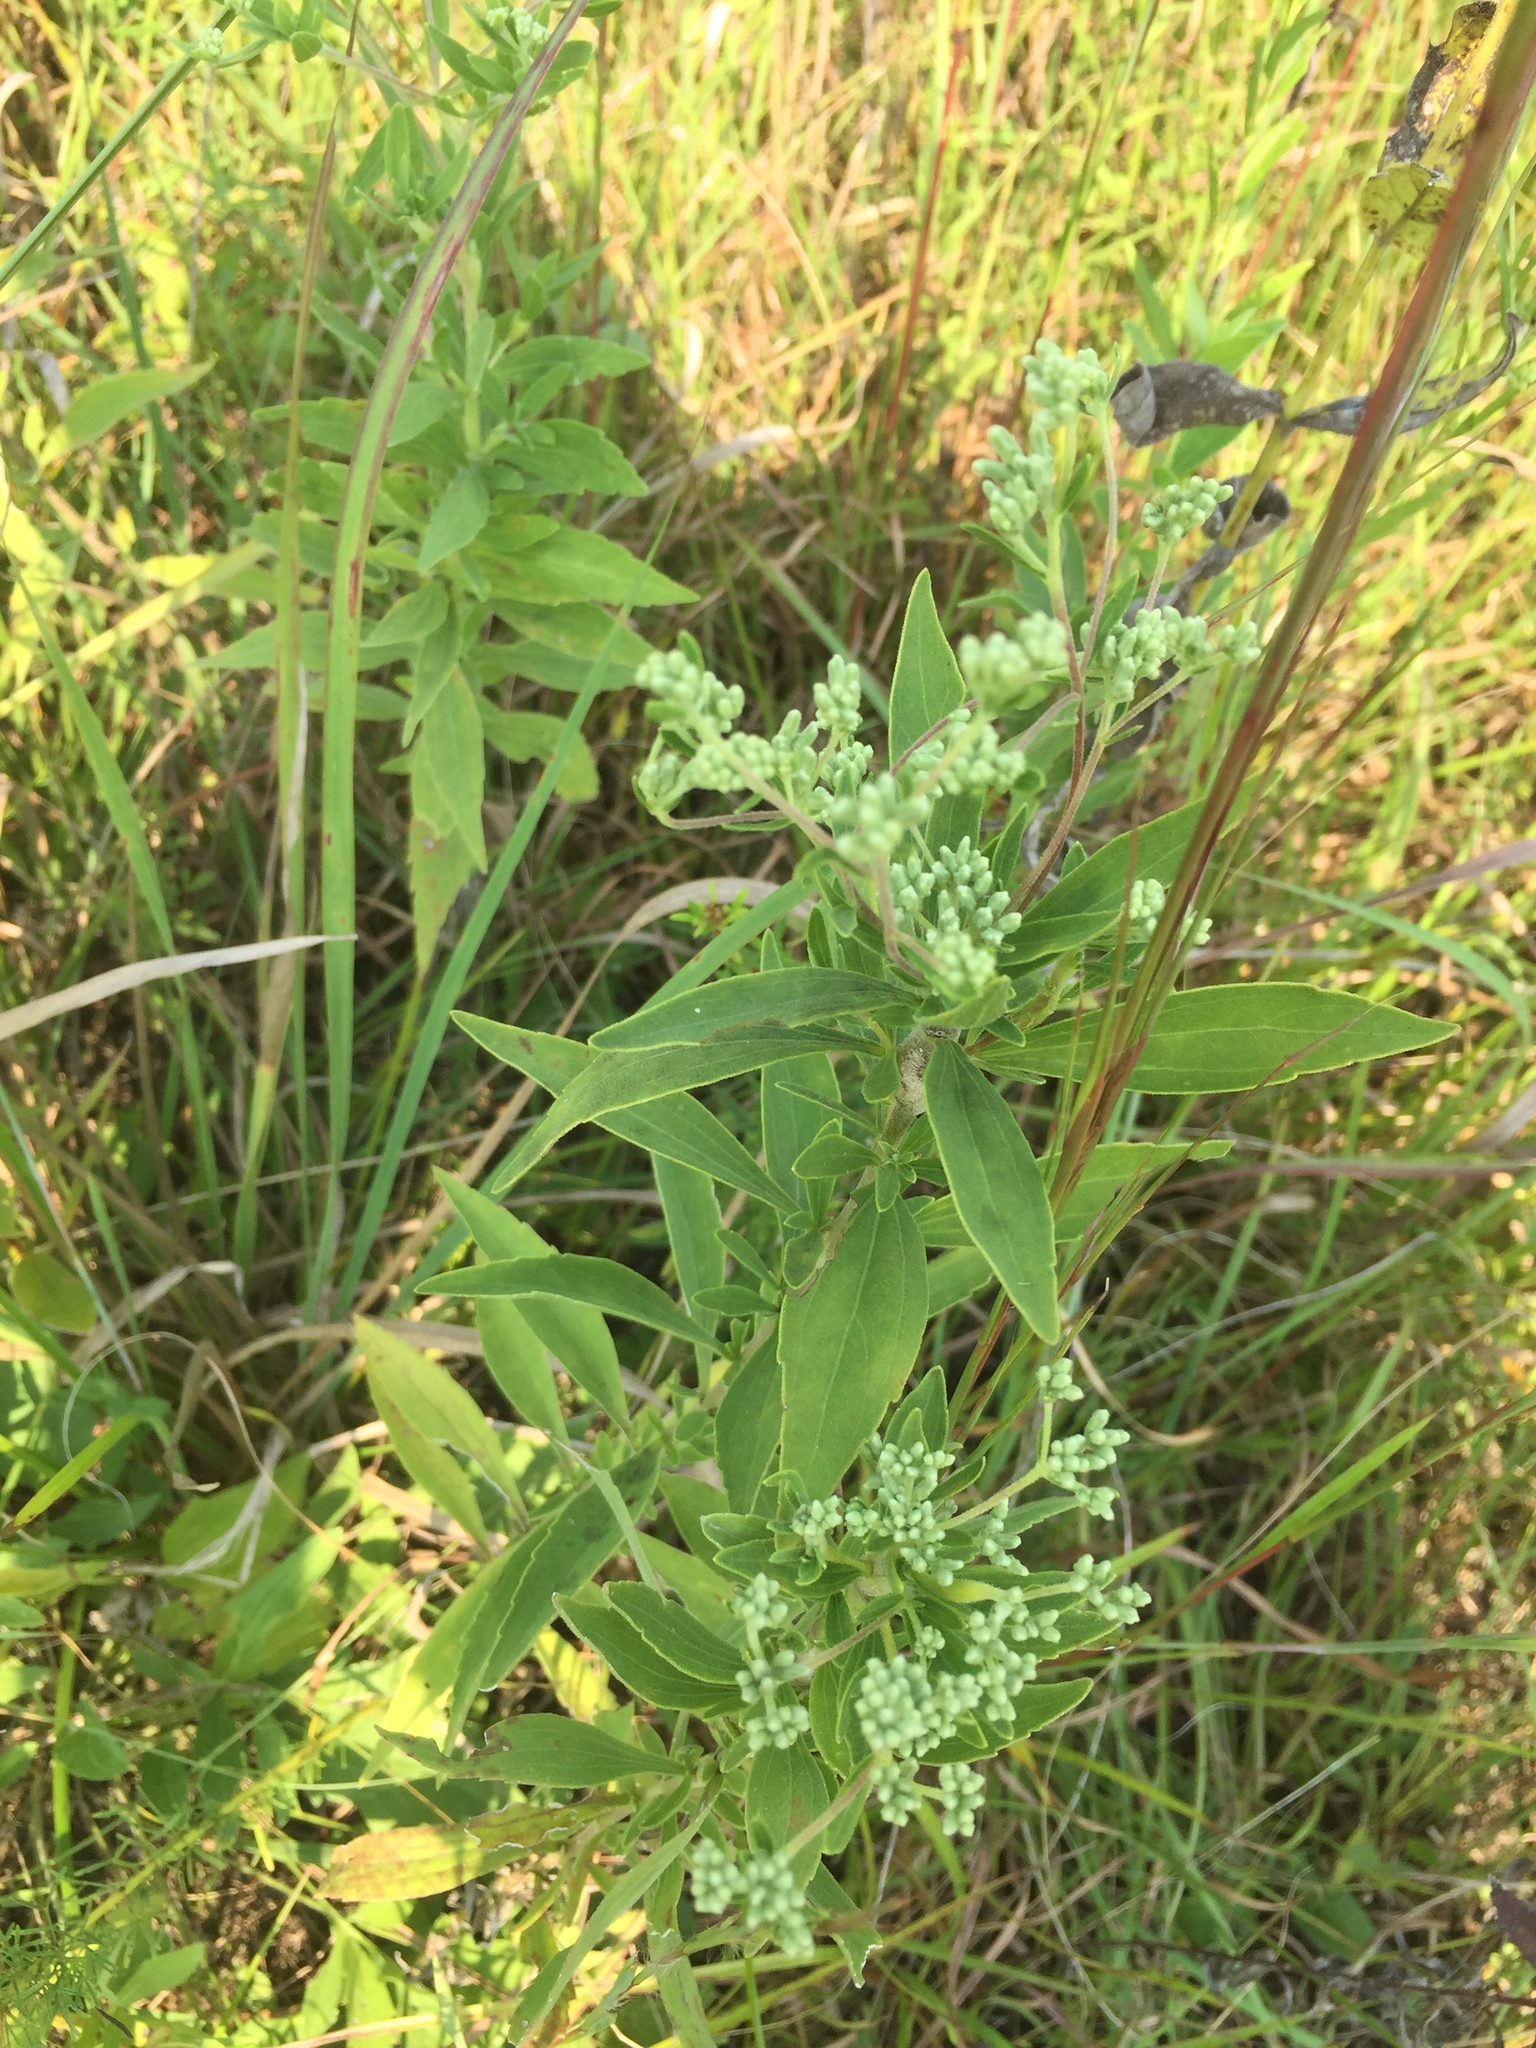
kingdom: Plantae
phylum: Tracheophyta
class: Magnoliopsida
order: Asterales
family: Asteraceae
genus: Eupatorium
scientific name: Eupatorium altissimum
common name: Tall thoroughwort
